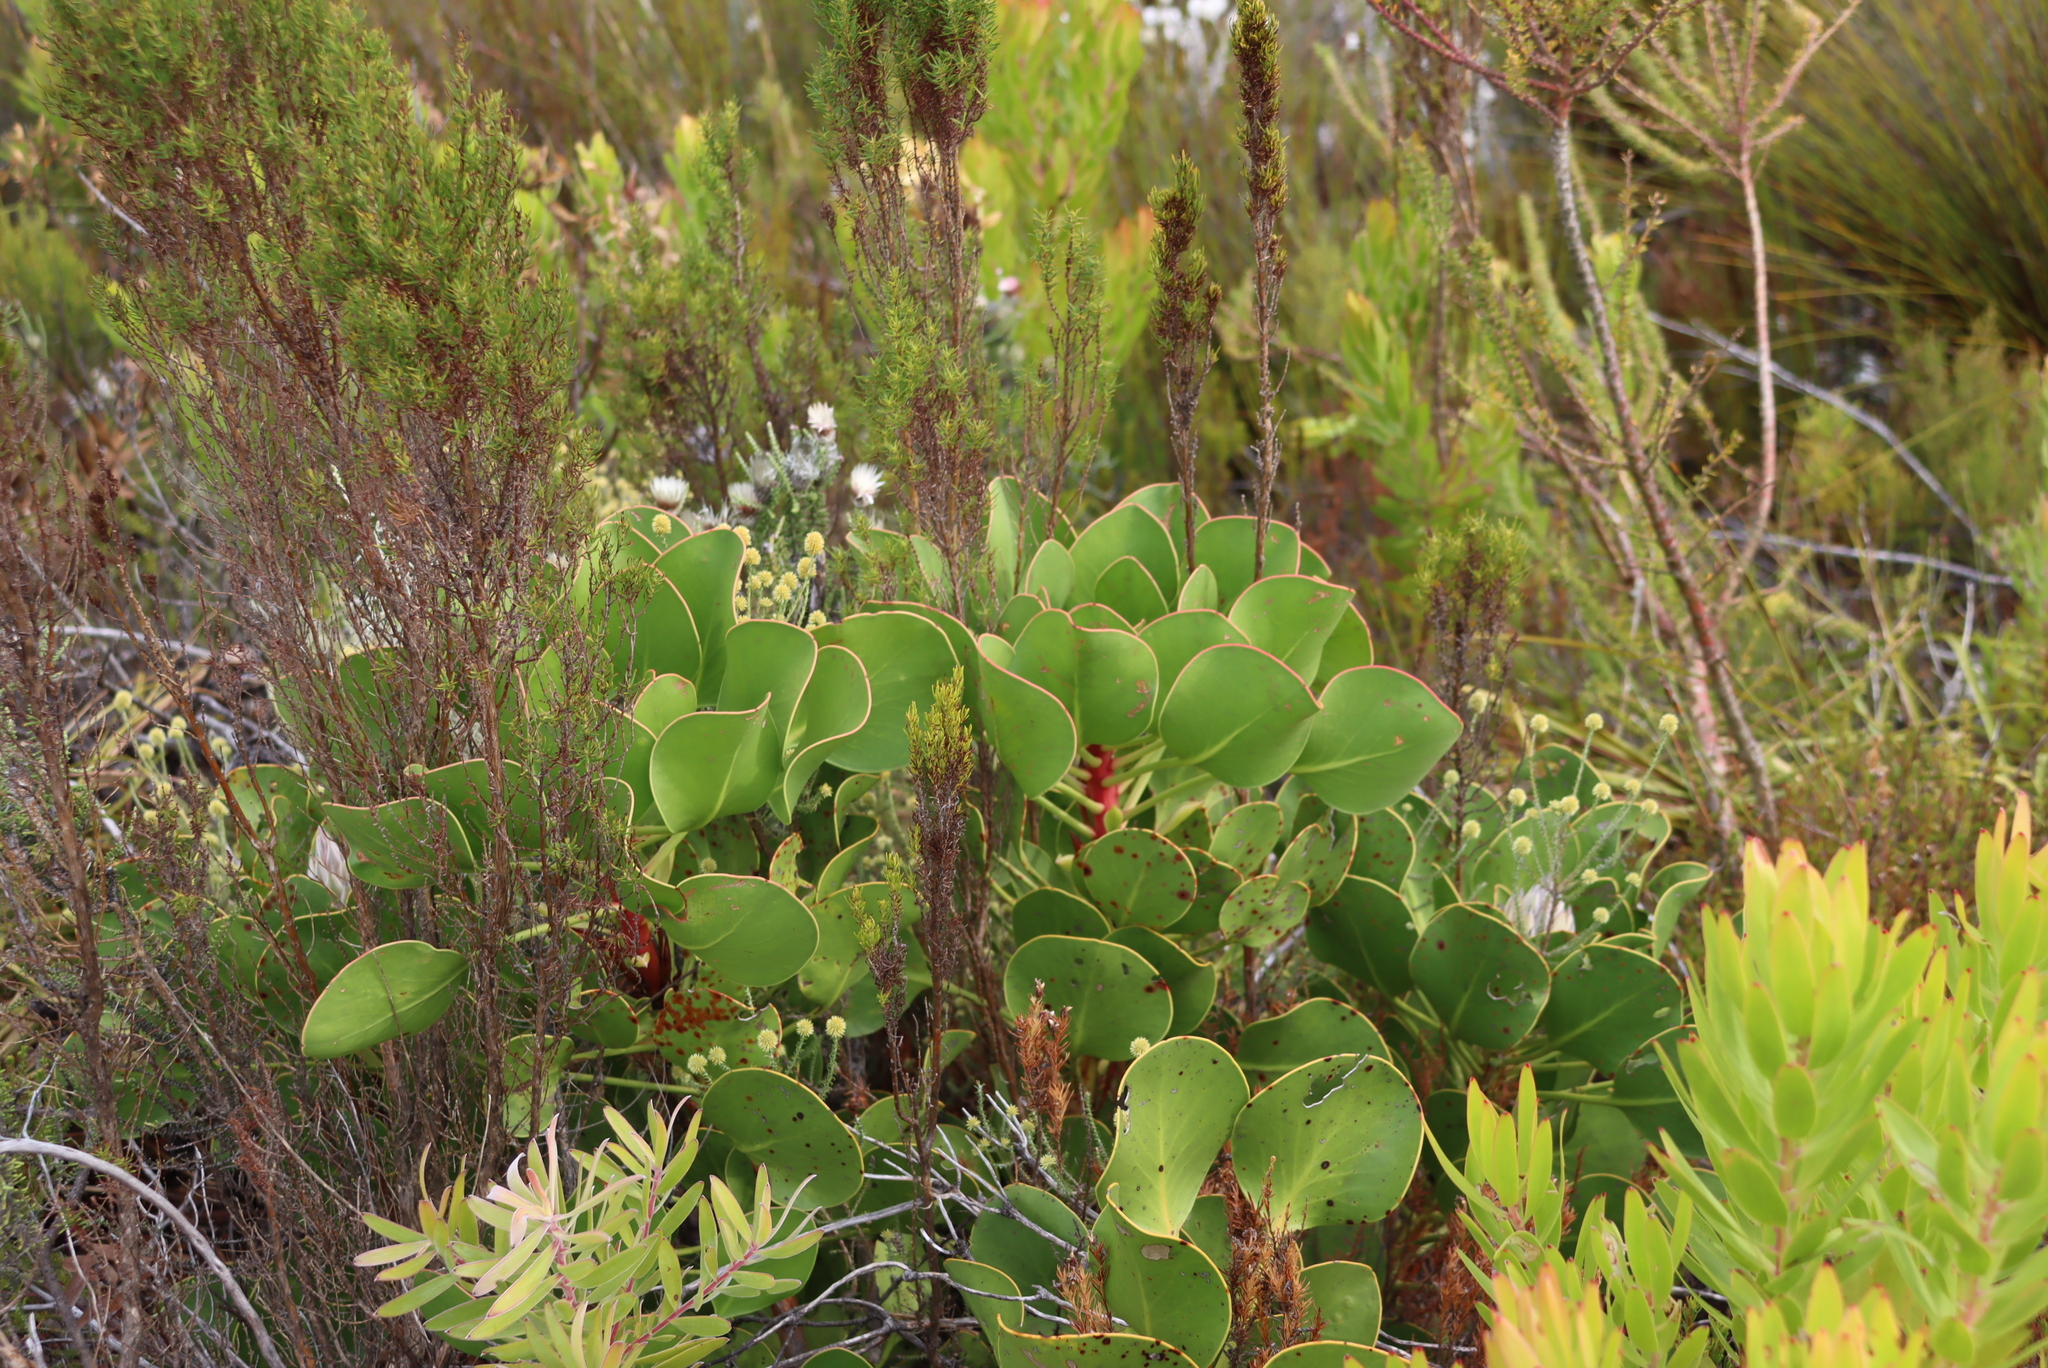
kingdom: Plantae
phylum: Tracheophyta
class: Magnoliopsida
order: Proteales
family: Proteaceae
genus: Protea
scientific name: Protea cynaroides
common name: King protea
